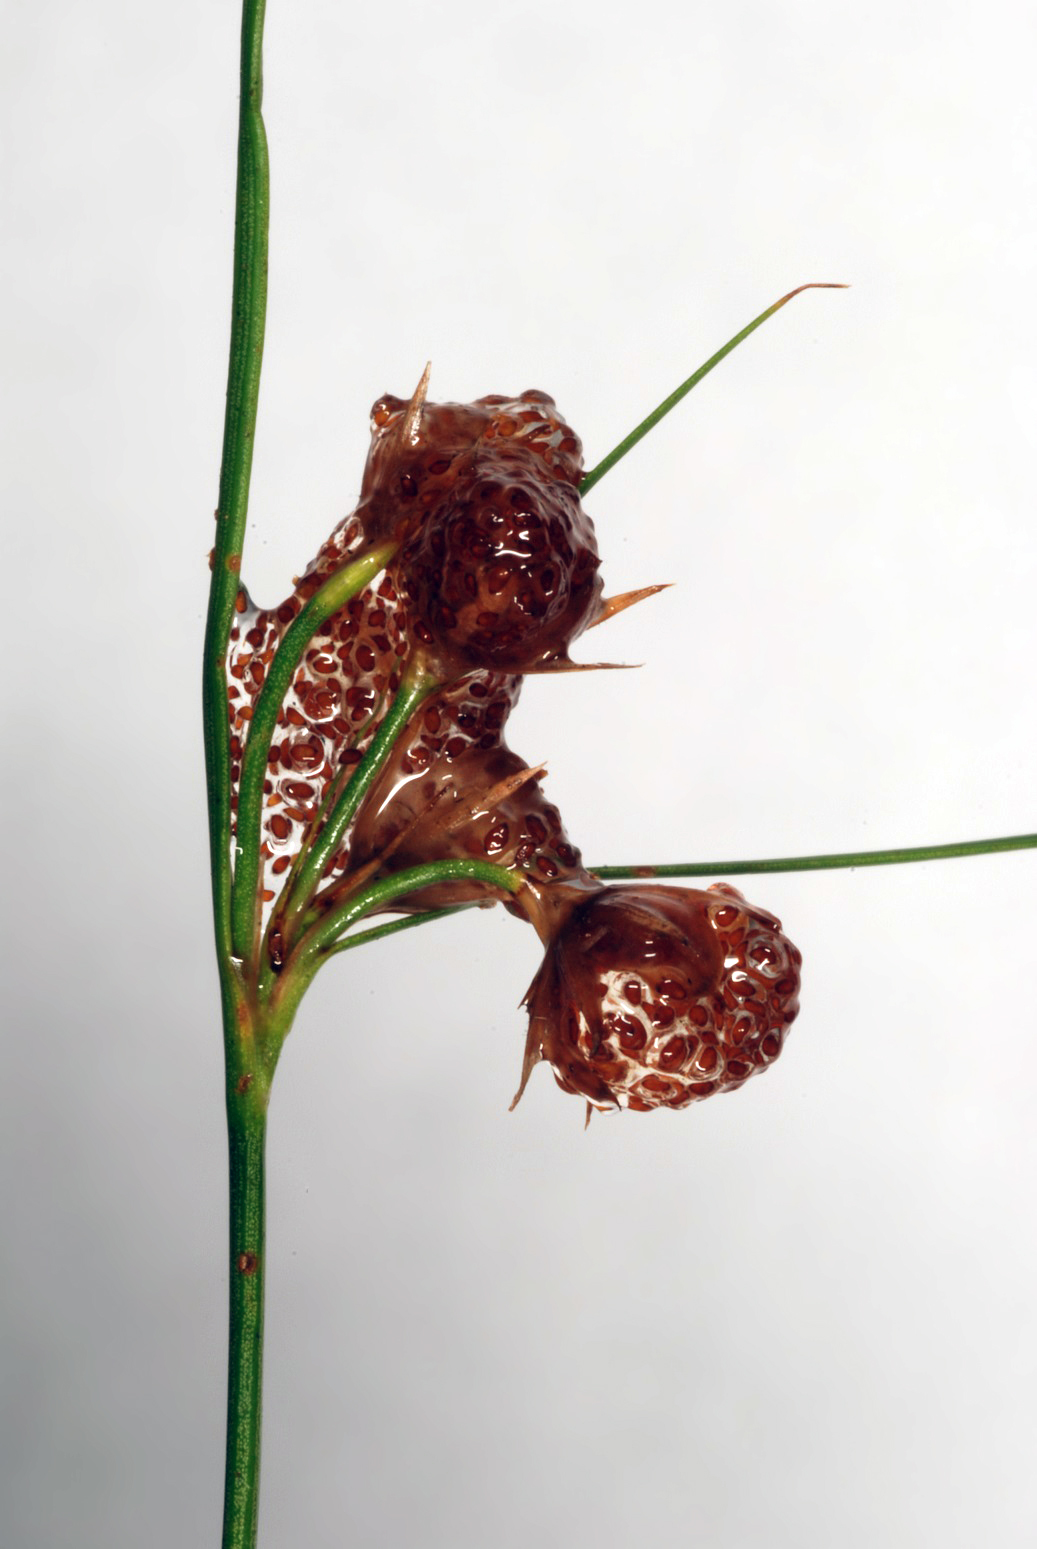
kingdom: Plantae
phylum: Tracheophyta
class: Liliopsida
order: Poales
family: Juncaceae
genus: Juncus
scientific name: Juncus tenuis
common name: Slender rush
